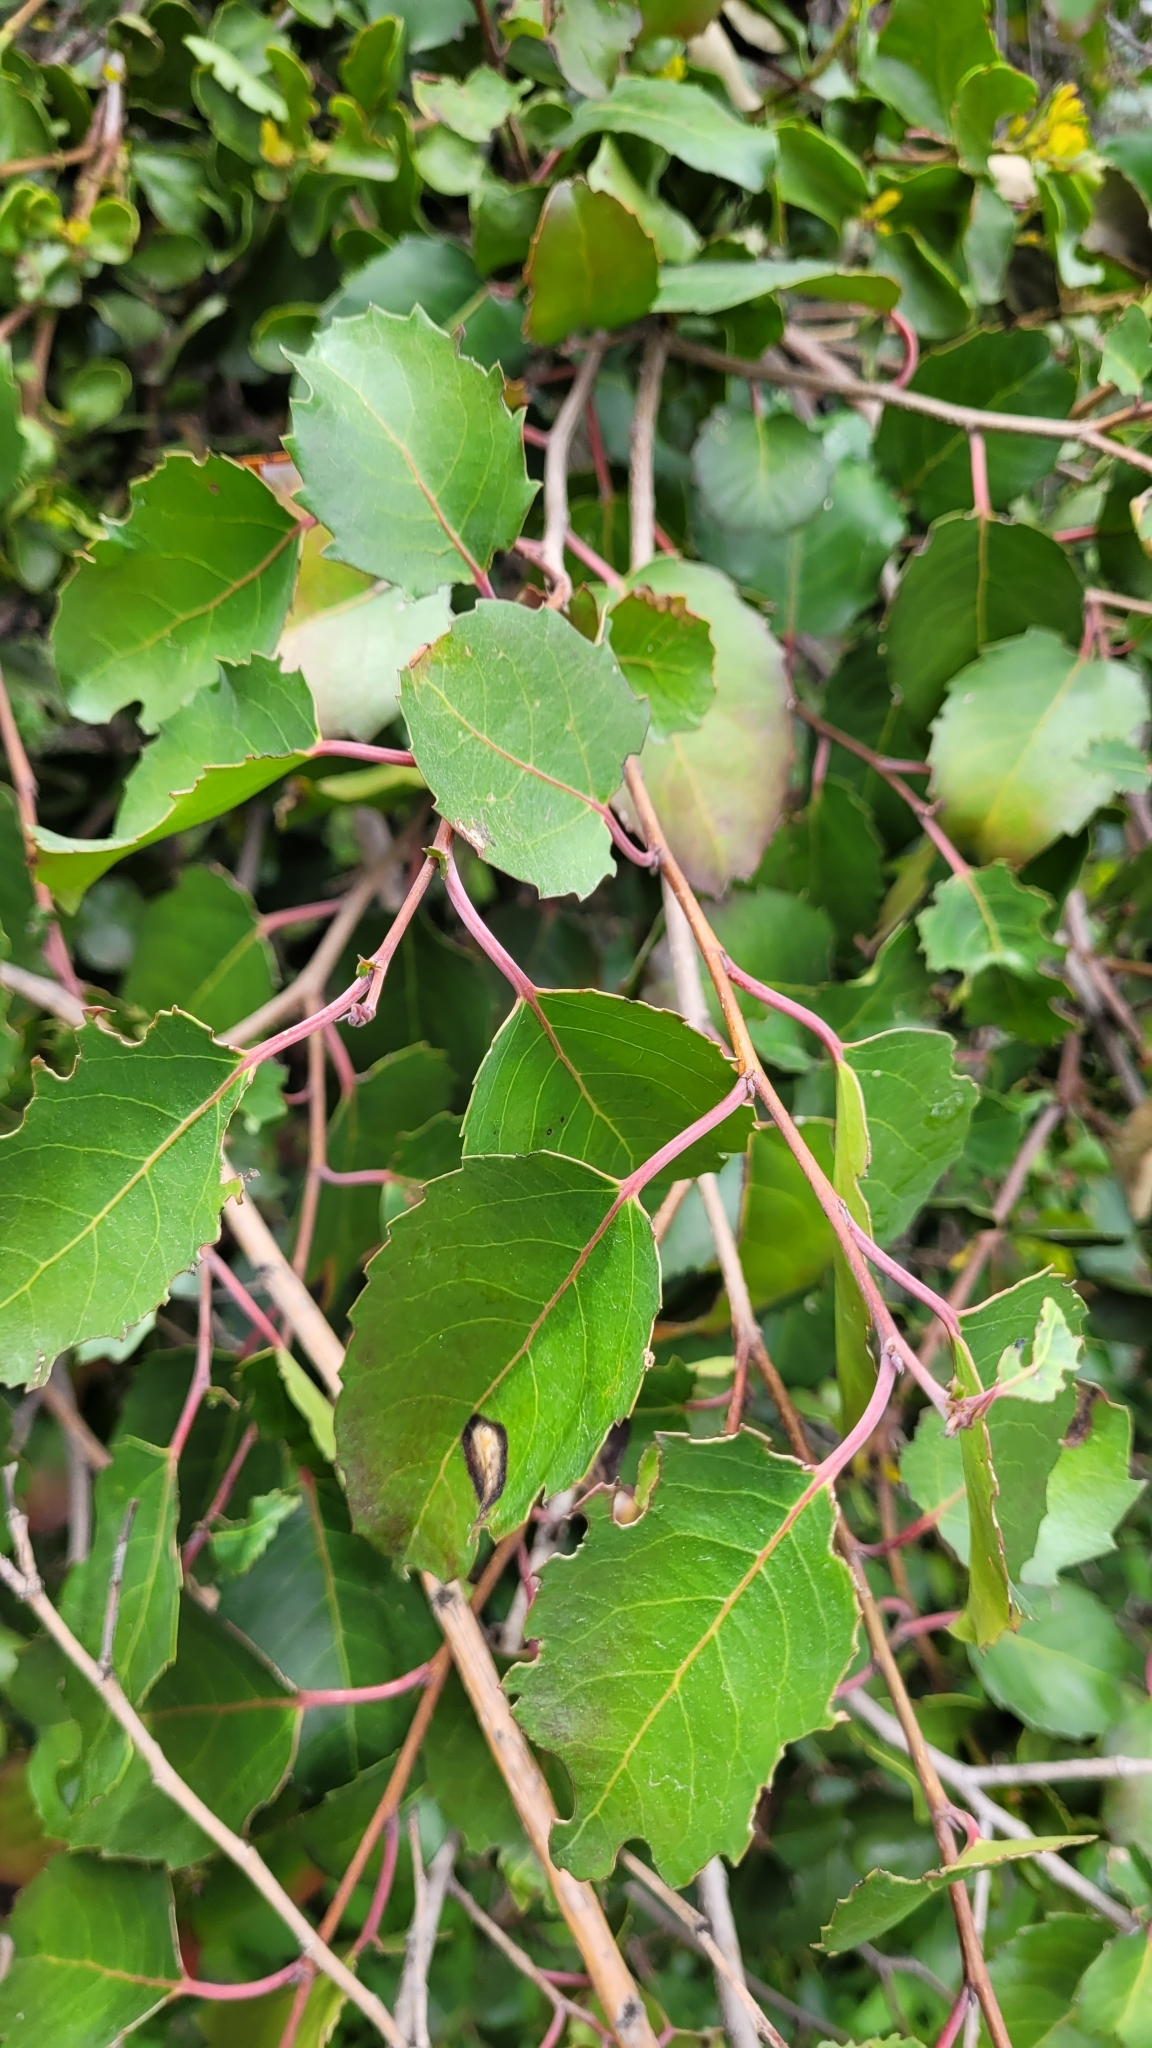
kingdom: Plantae
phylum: Tracheophyta
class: Magnoliopsida
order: Malpighiales
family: Salicaceae
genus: Azara
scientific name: Azara petiolaris
